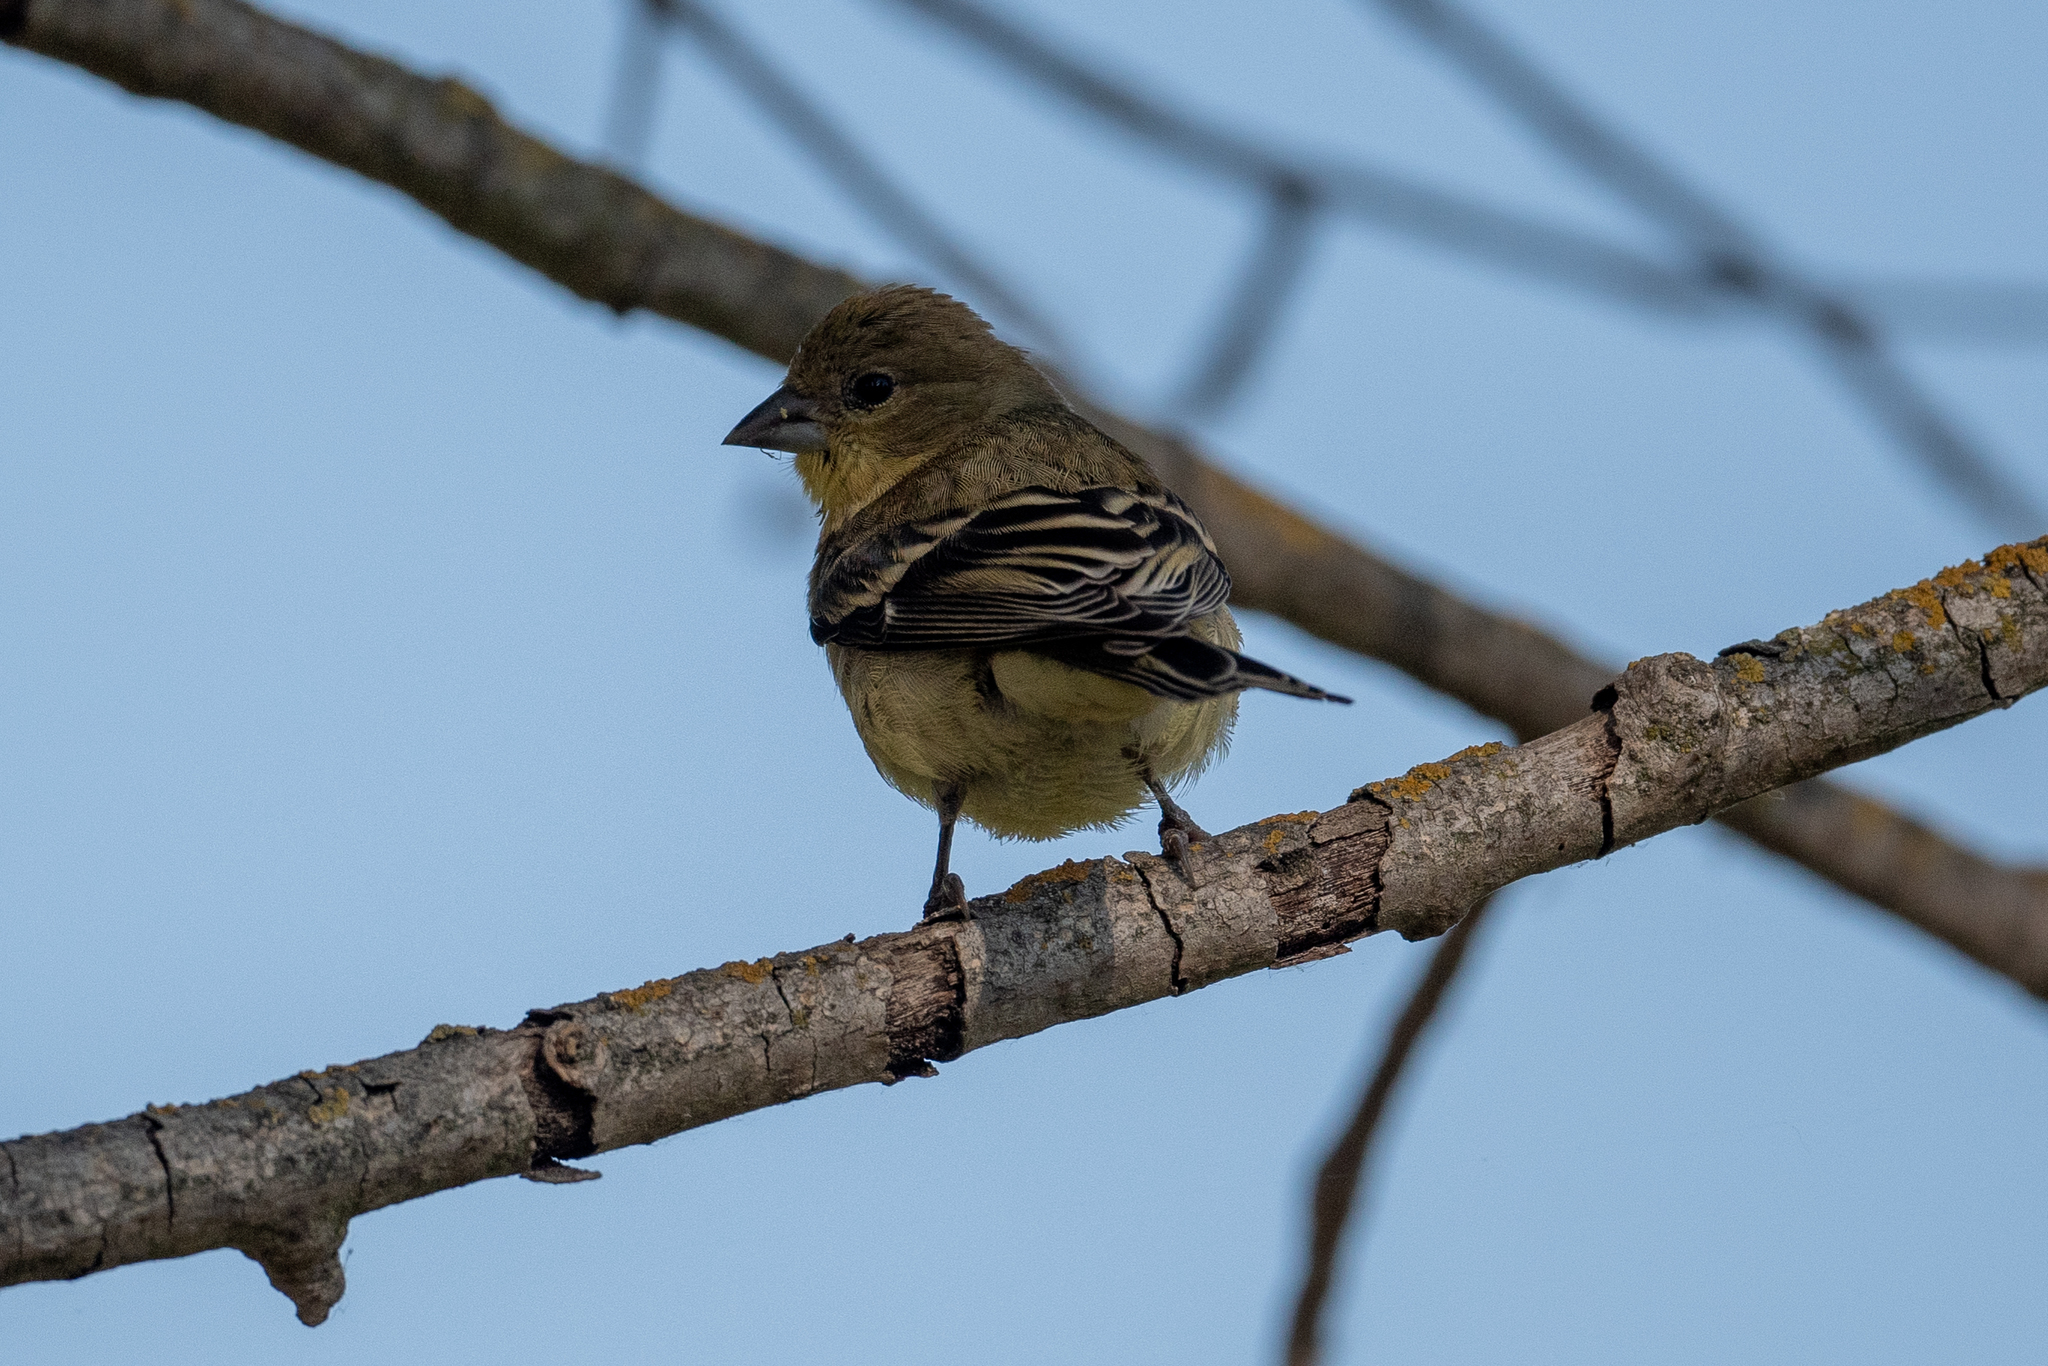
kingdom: Animalia
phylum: Chordata
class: Aves
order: Passeriformes
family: Fringillidae
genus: Spinus
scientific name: Spinus psaltria
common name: Lesser goldfinch
